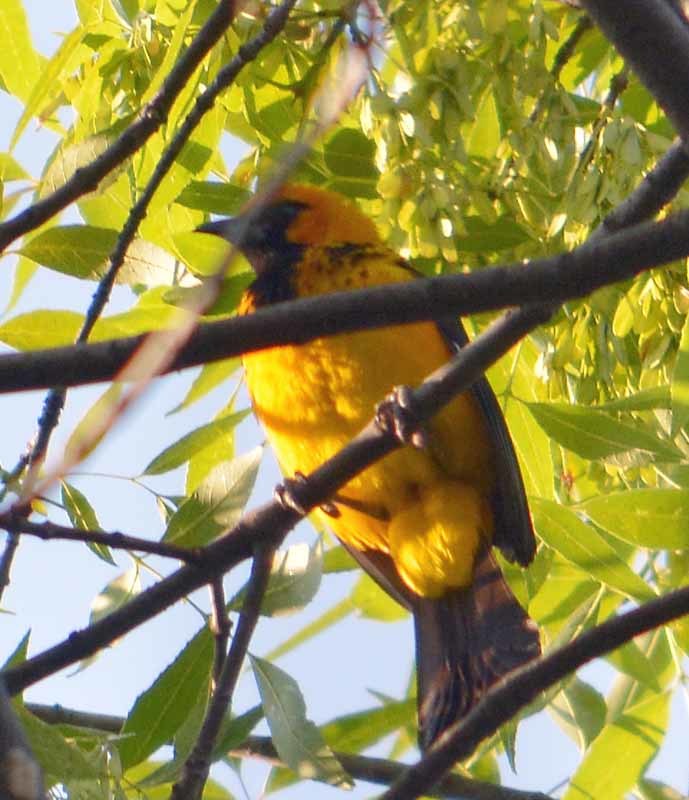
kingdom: Animalia
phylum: Chordata
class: Aves
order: Passeriformes
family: Icteridae
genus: Icterus
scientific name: Icterus pectoralis
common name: Spot-breasted oriole
